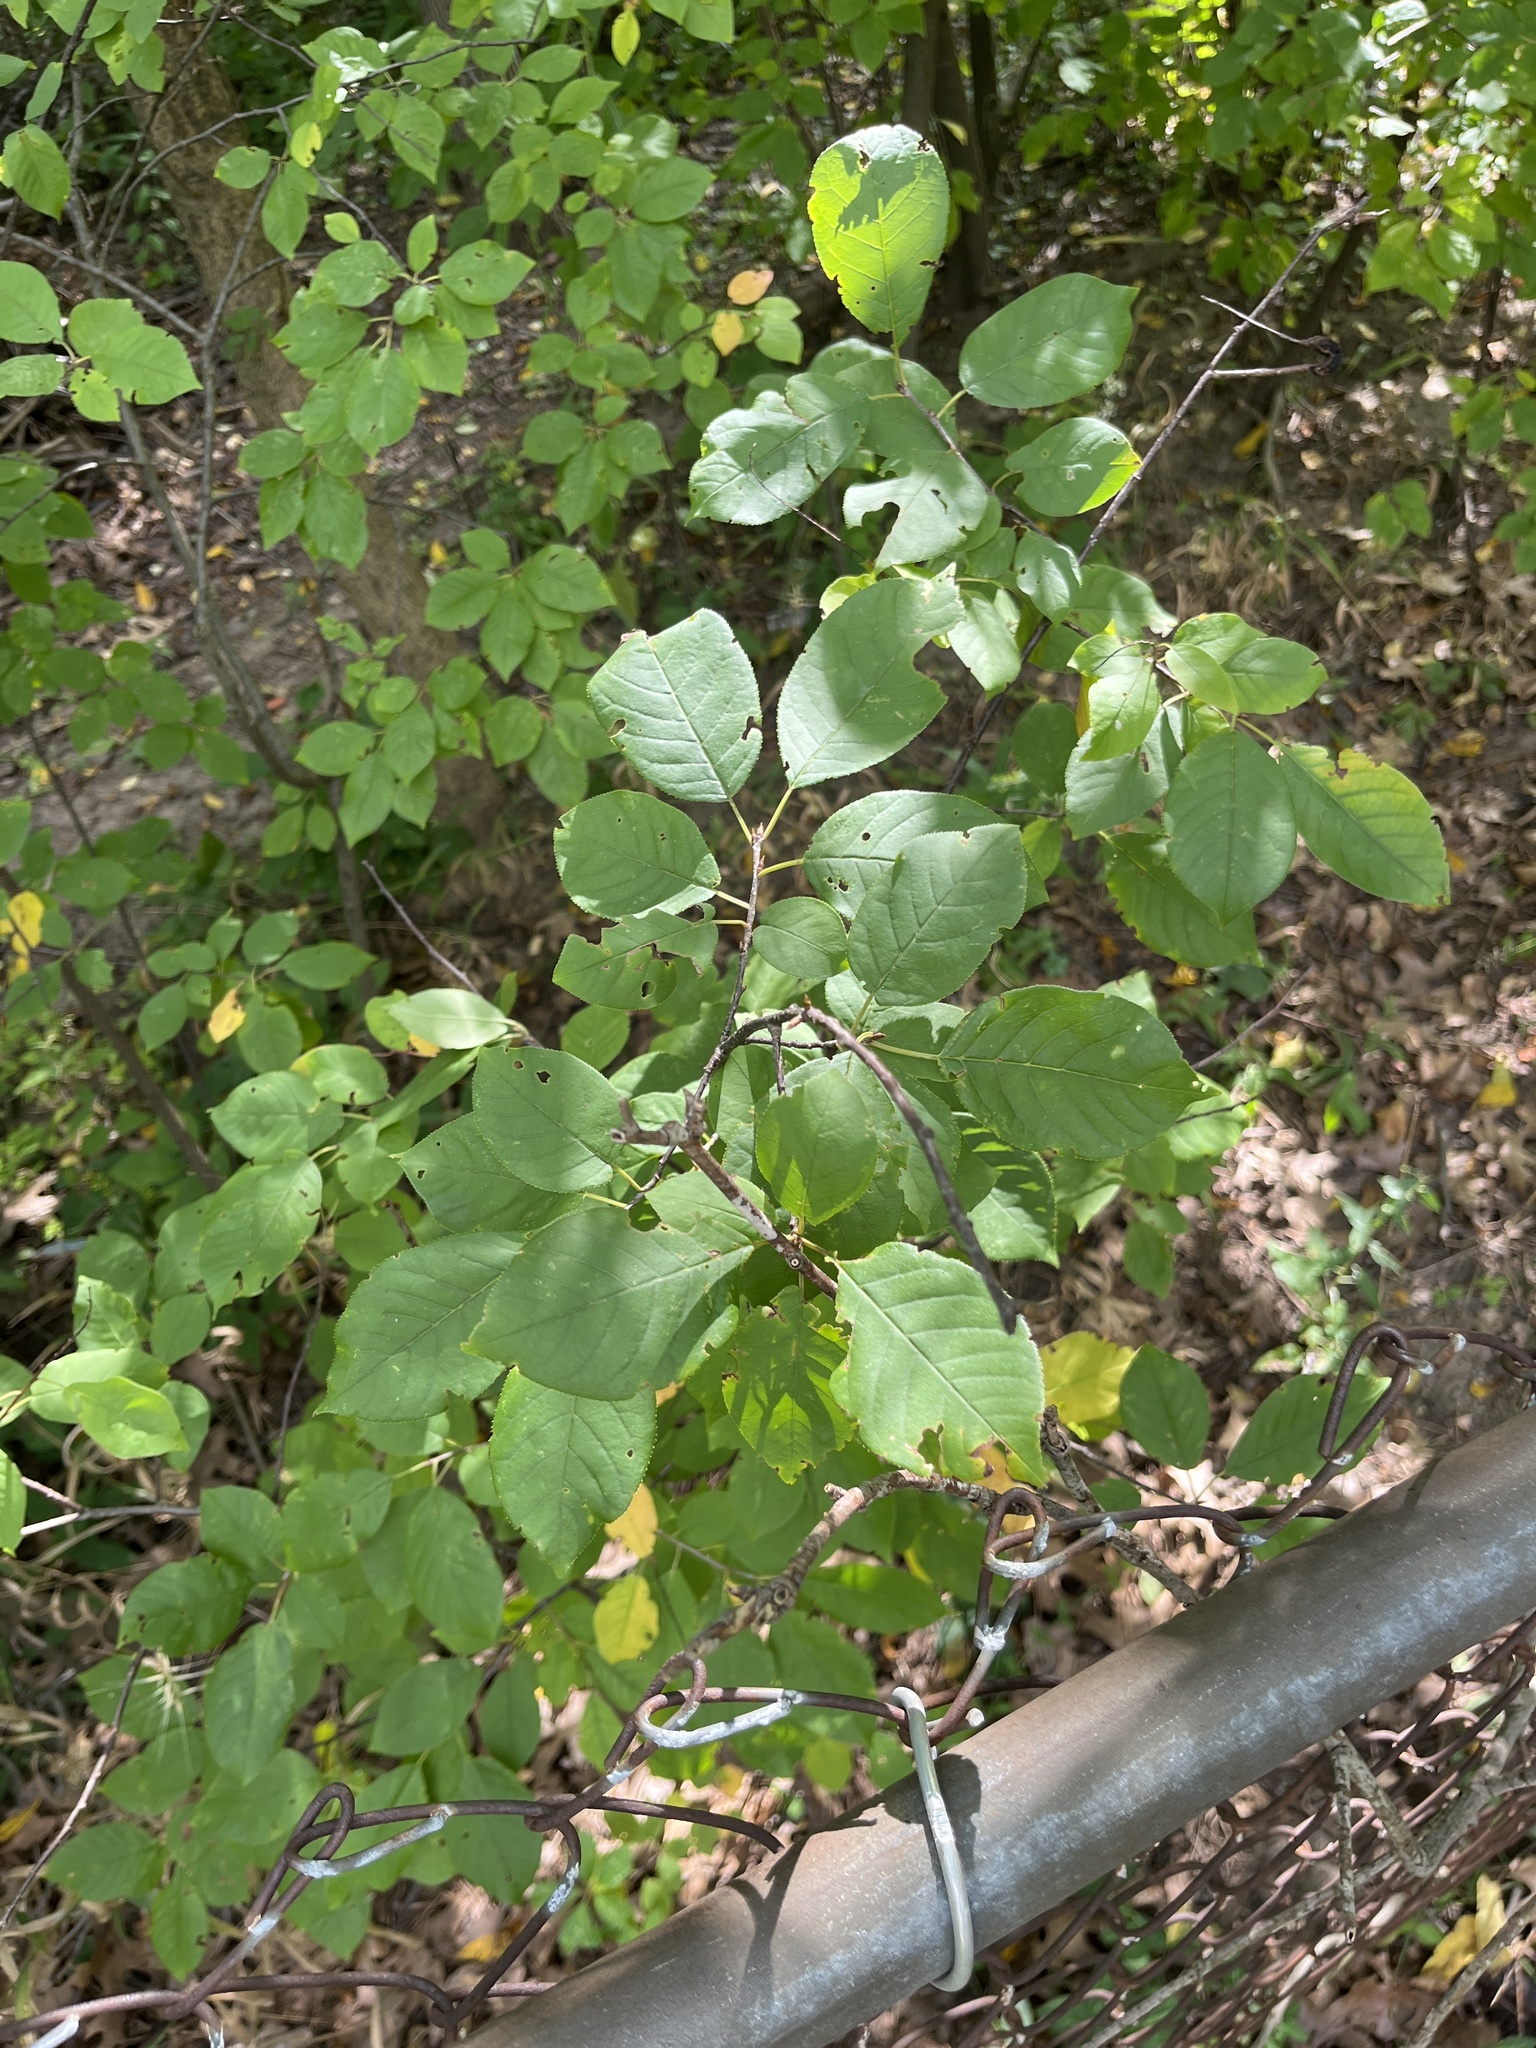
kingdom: Plantae
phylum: Tracheophyta
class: Magnoliopsida
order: Rosales
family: Rosaceae
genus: Prunus
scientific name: Prunus virginiana
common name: Chokecherry
